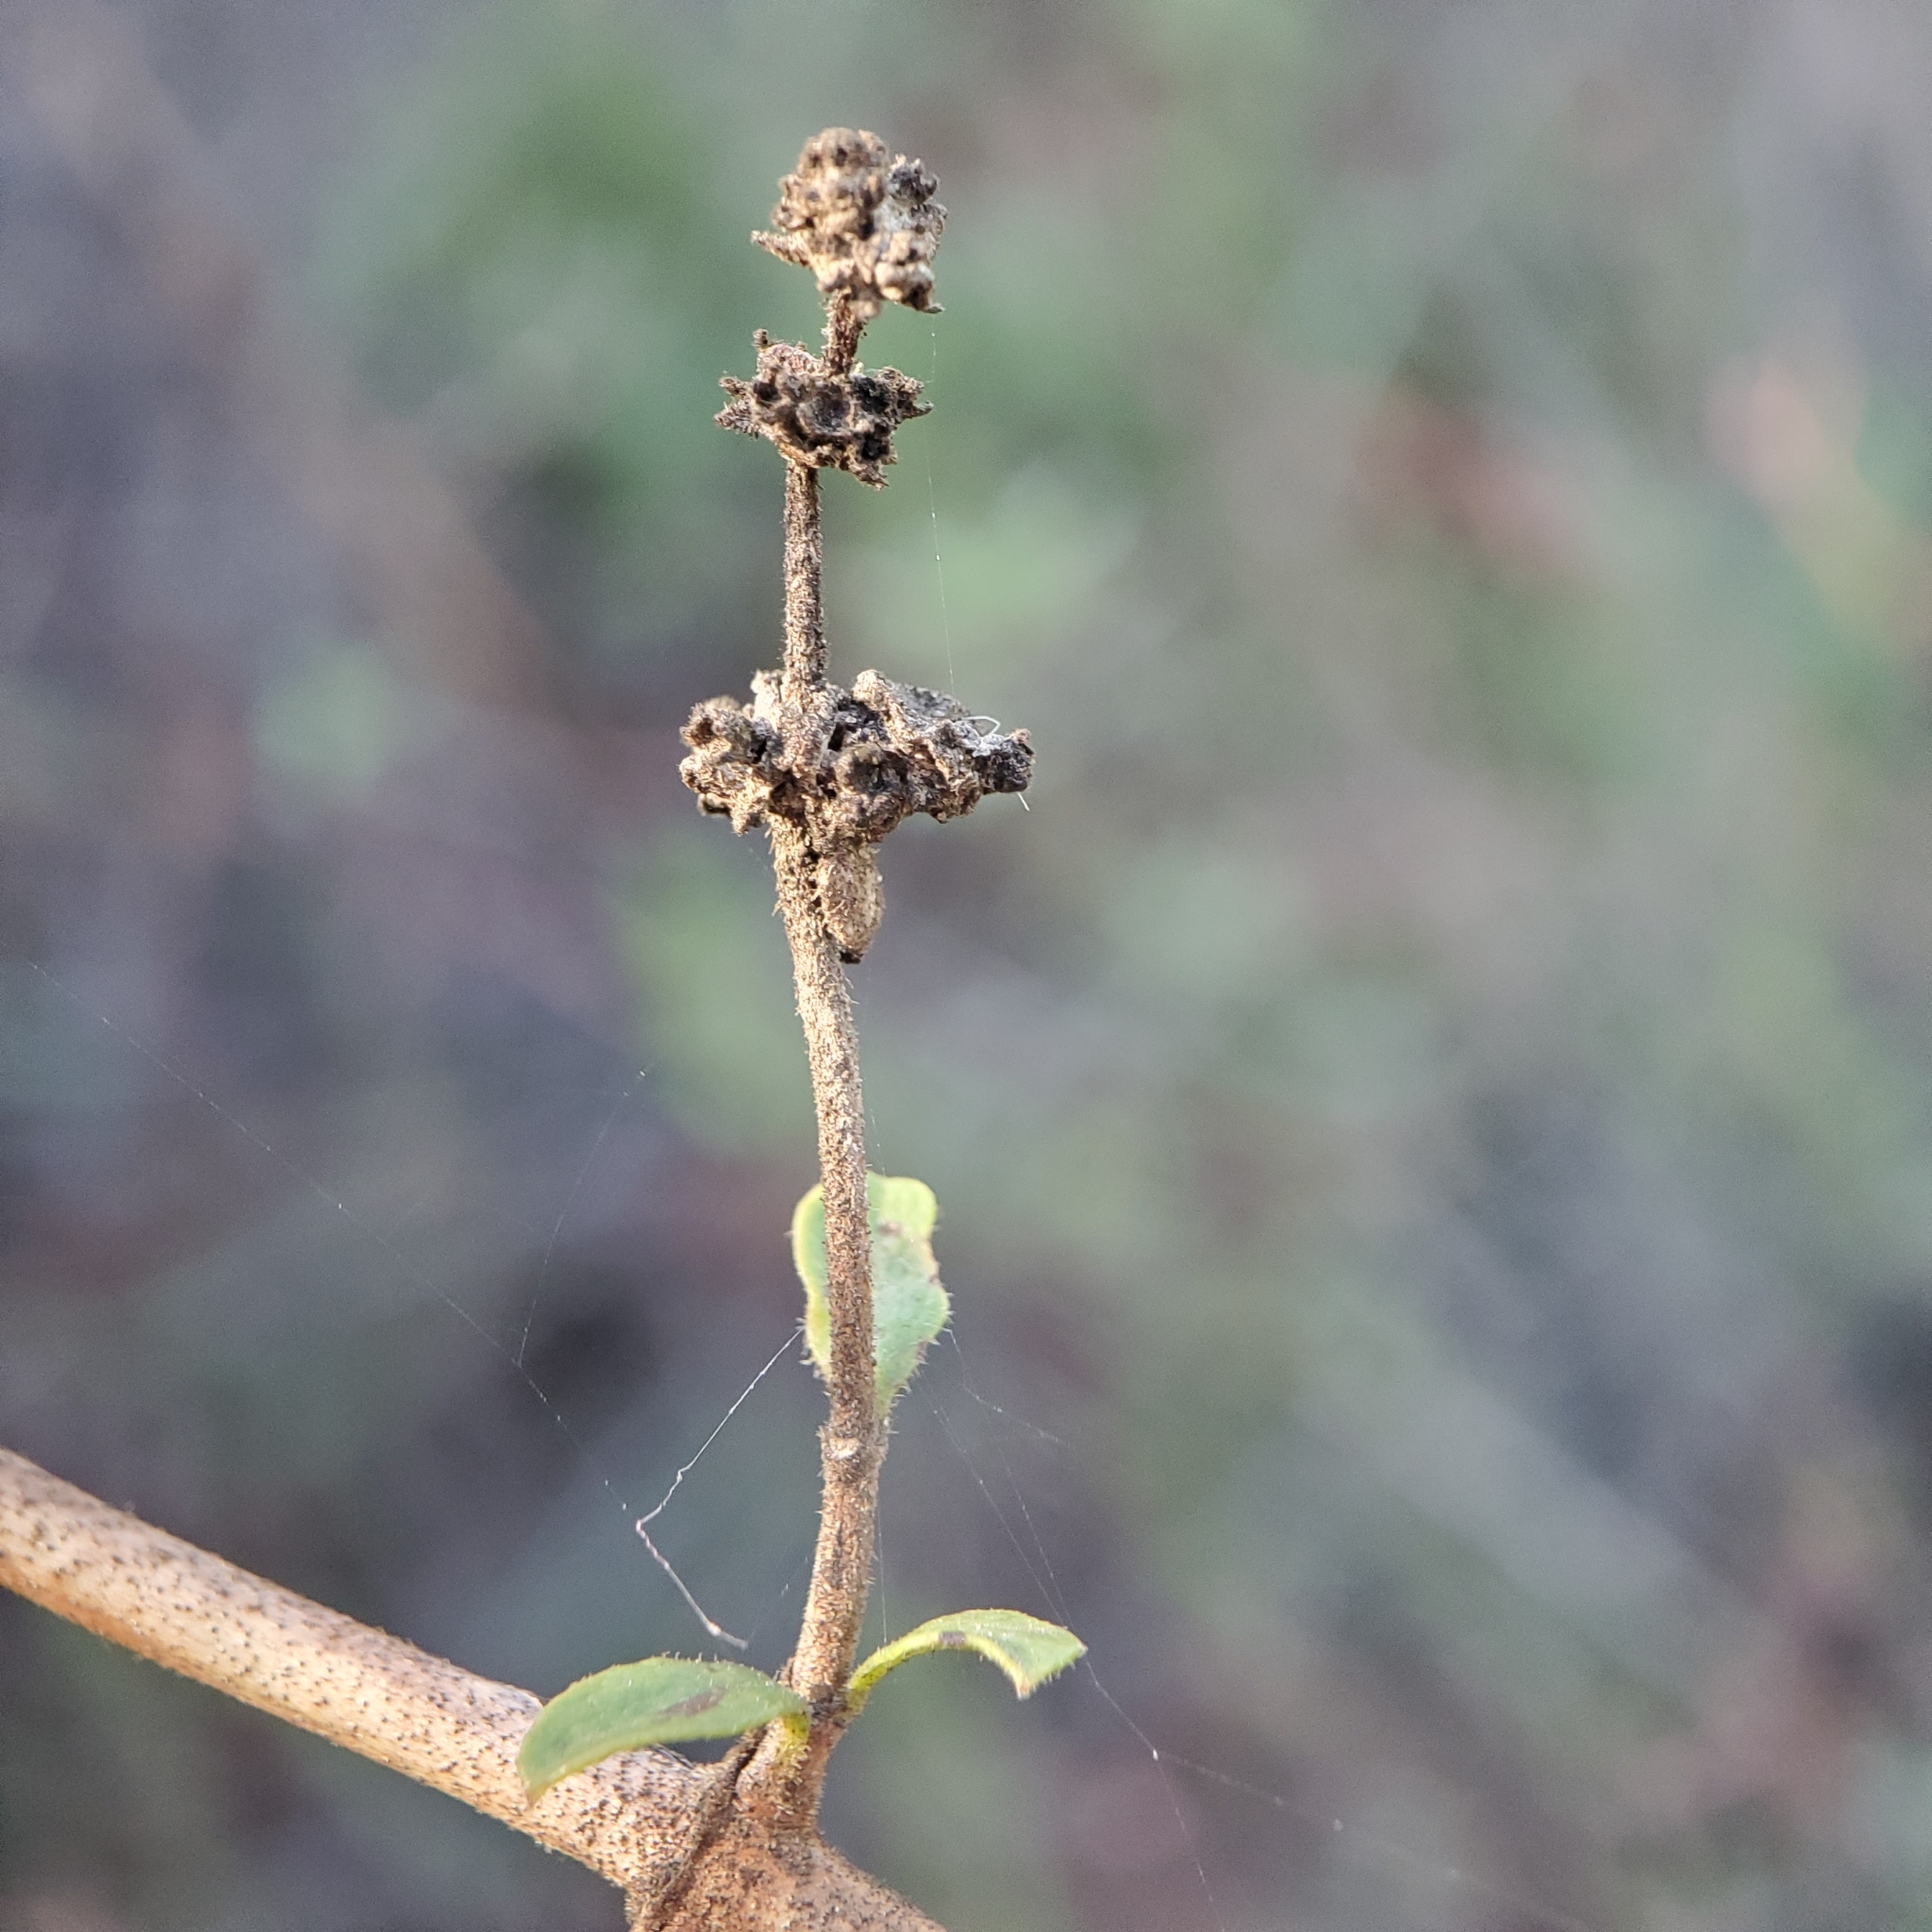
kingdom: Plantae
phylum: Tracheophyta
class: Magnoliopsida
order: Dipsacales
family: Caprifoliaceae
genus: Lonicera
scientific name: Lonicera subspicata
